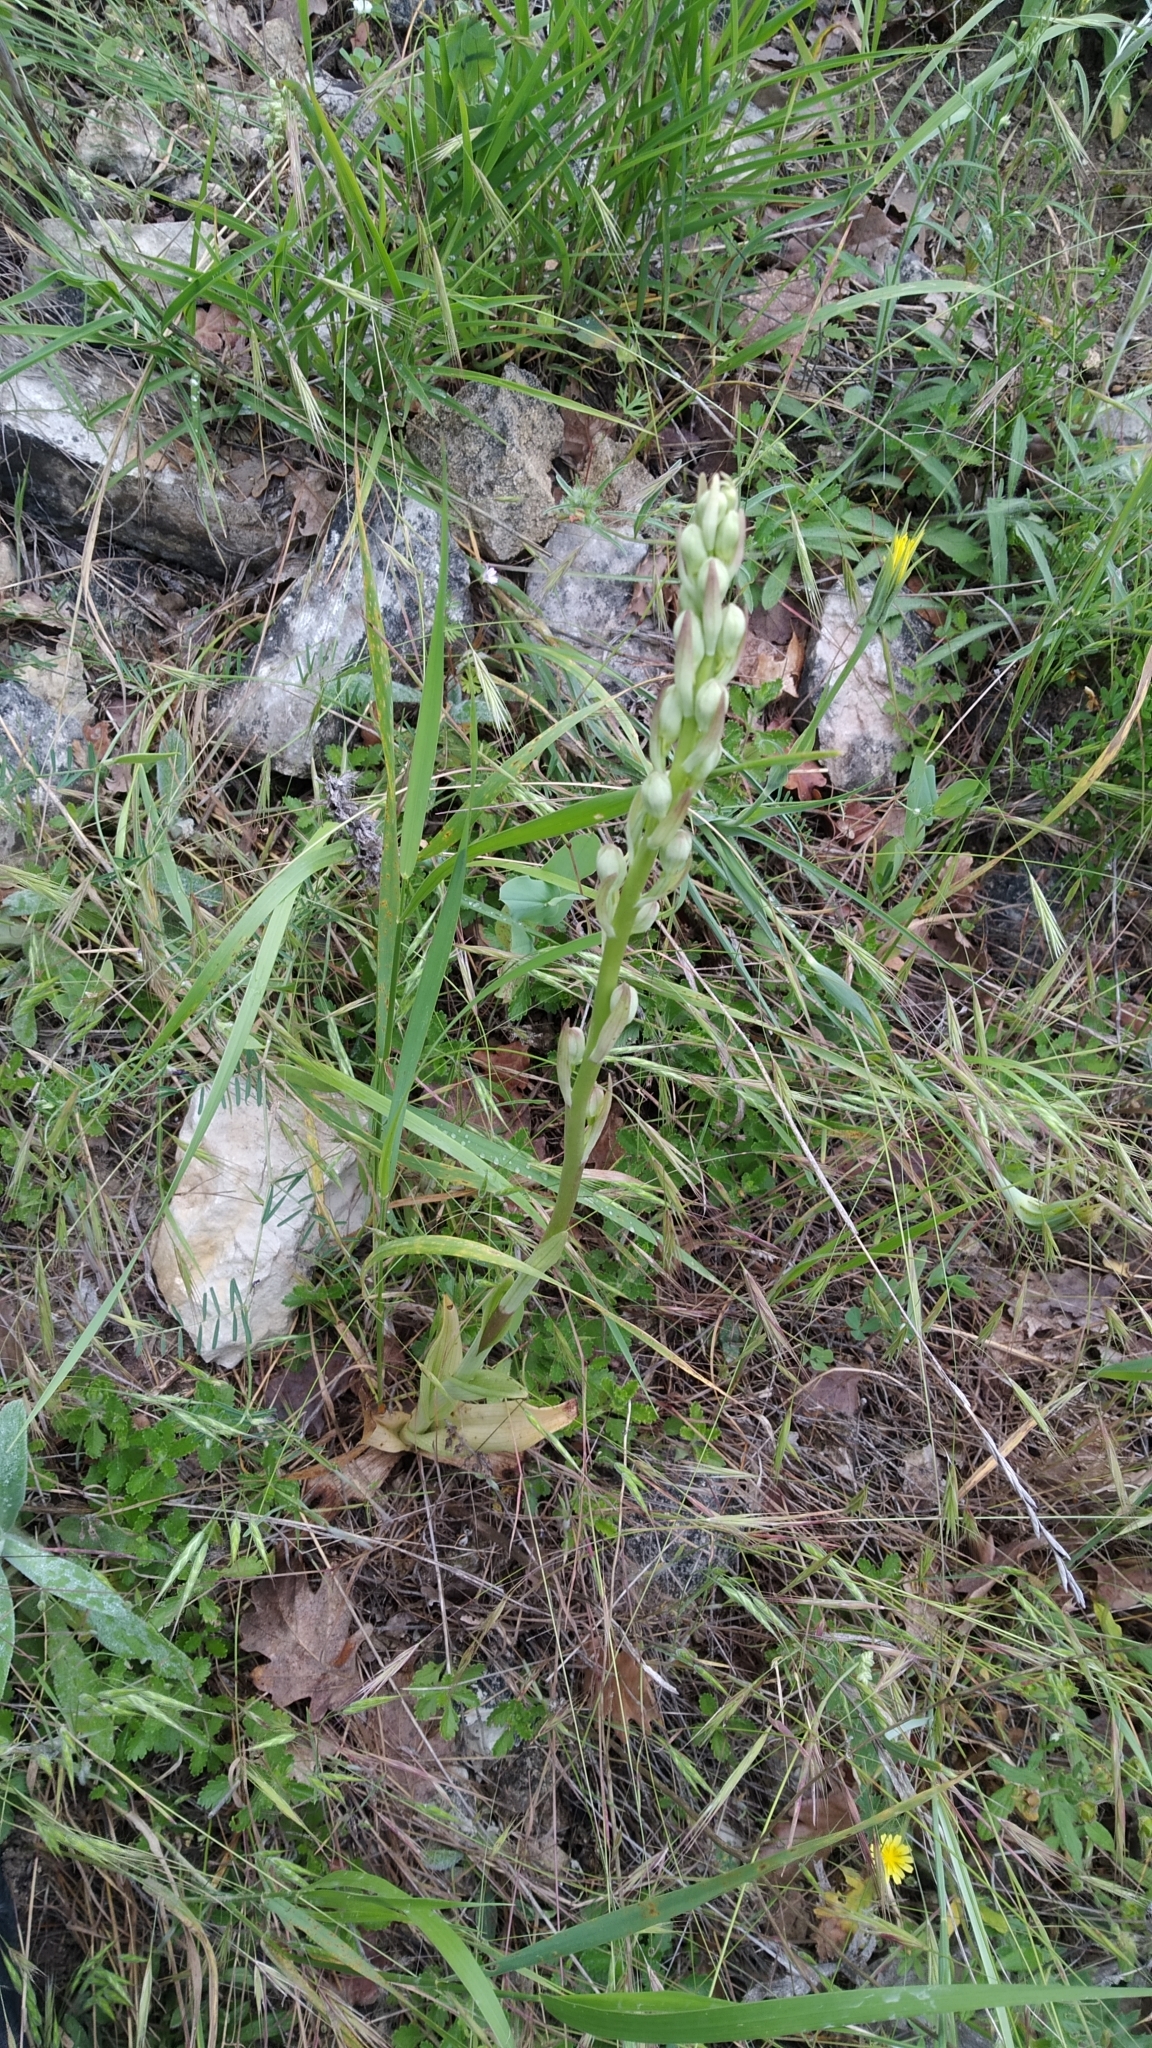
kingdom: Plantae
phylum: Tracheophyta
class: Liliopsida
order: Asparagales
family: Orchidaceae
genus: Himantoglossum
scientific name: Himantoglossum caprinum
